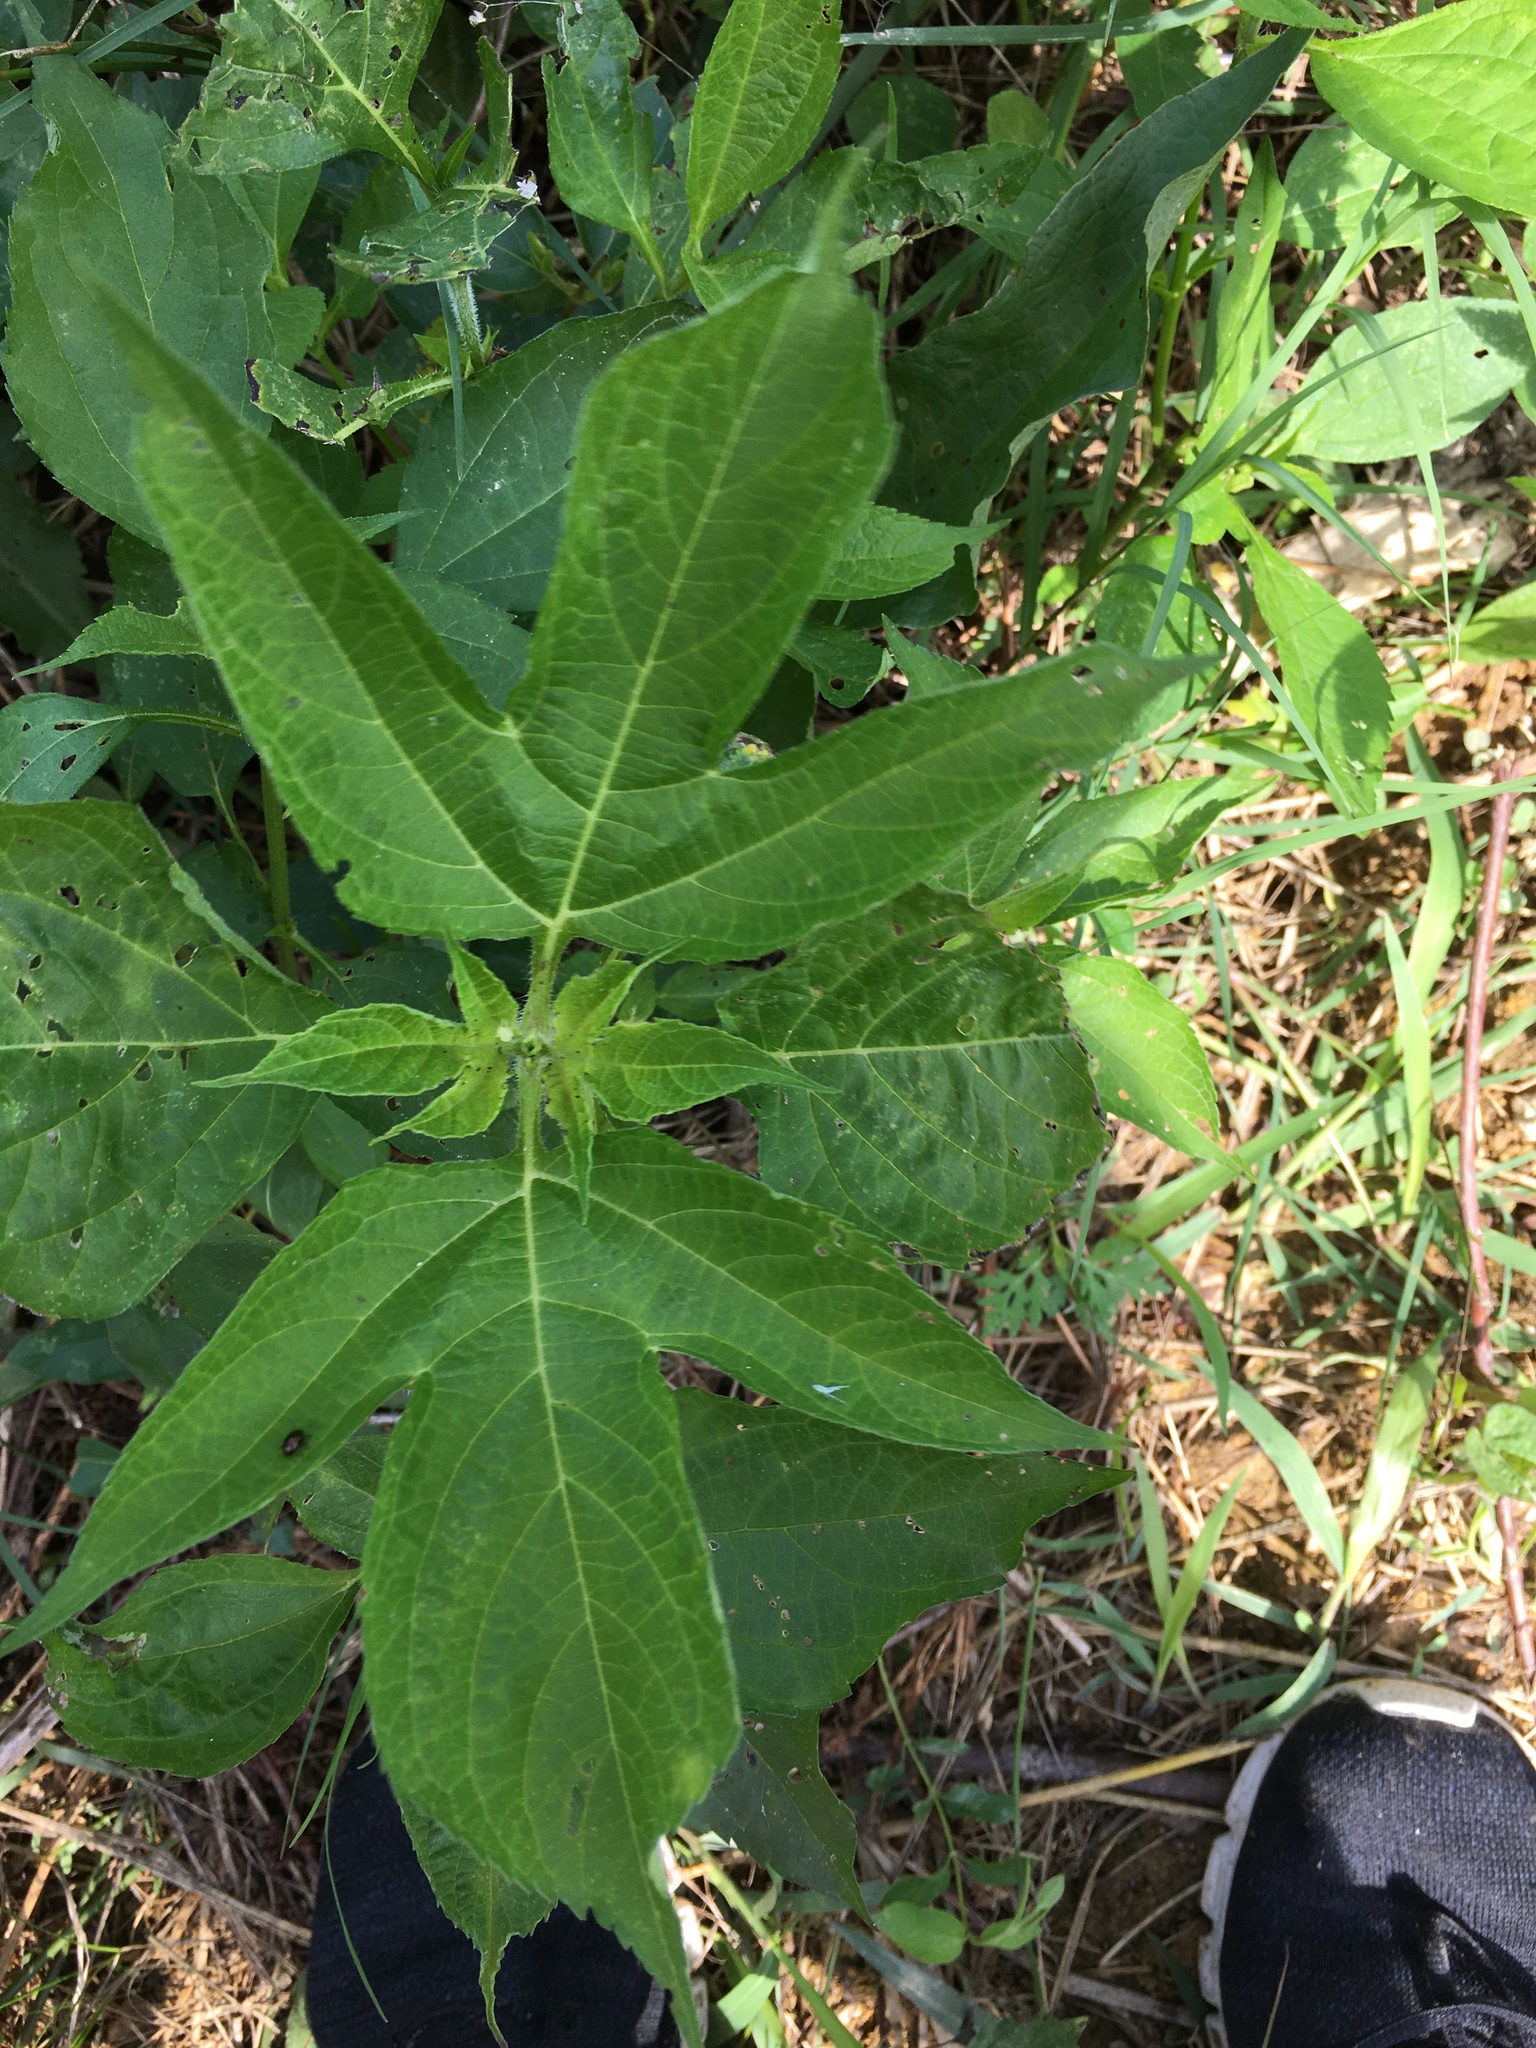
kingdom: Plantae
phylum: Tracheophyta
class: Magnoliopsida
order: Asterales
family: Asteraceae
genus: Ambrosia
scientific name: Ambrosia trifida
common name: Giant ragweed
